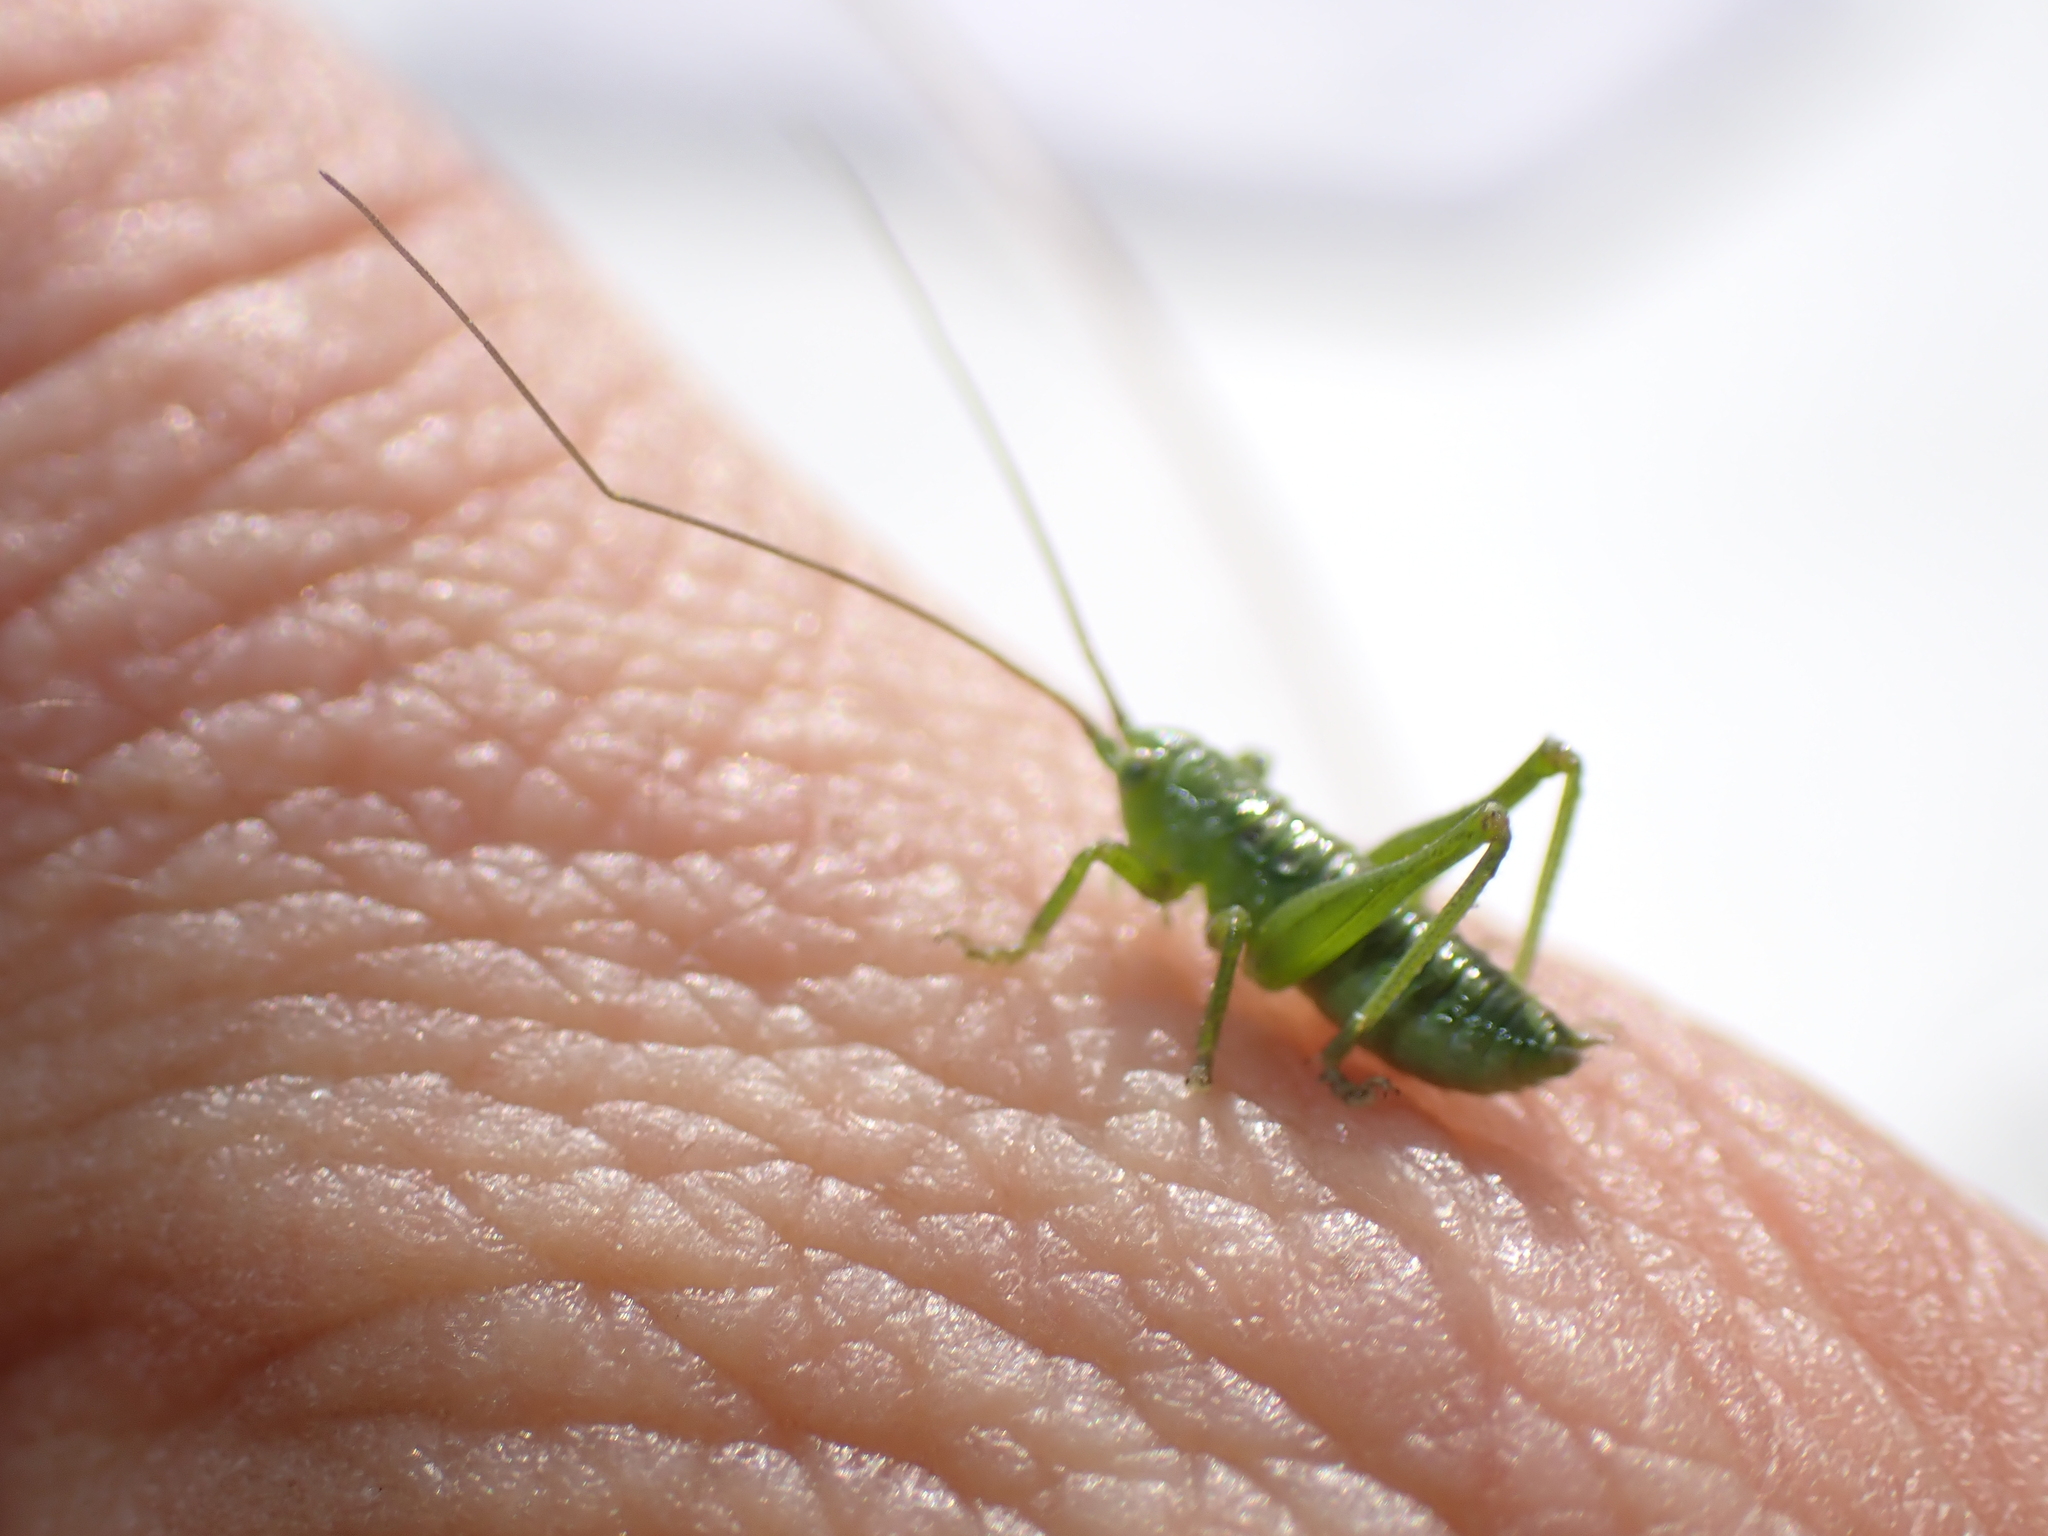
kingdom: Animalia
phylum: Arthropoda
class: Insecta
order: Orthoptera
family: Tettigoniidae
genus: Tettigonia
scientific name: Tettigonia viridissima
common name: Great green bush-cricket
